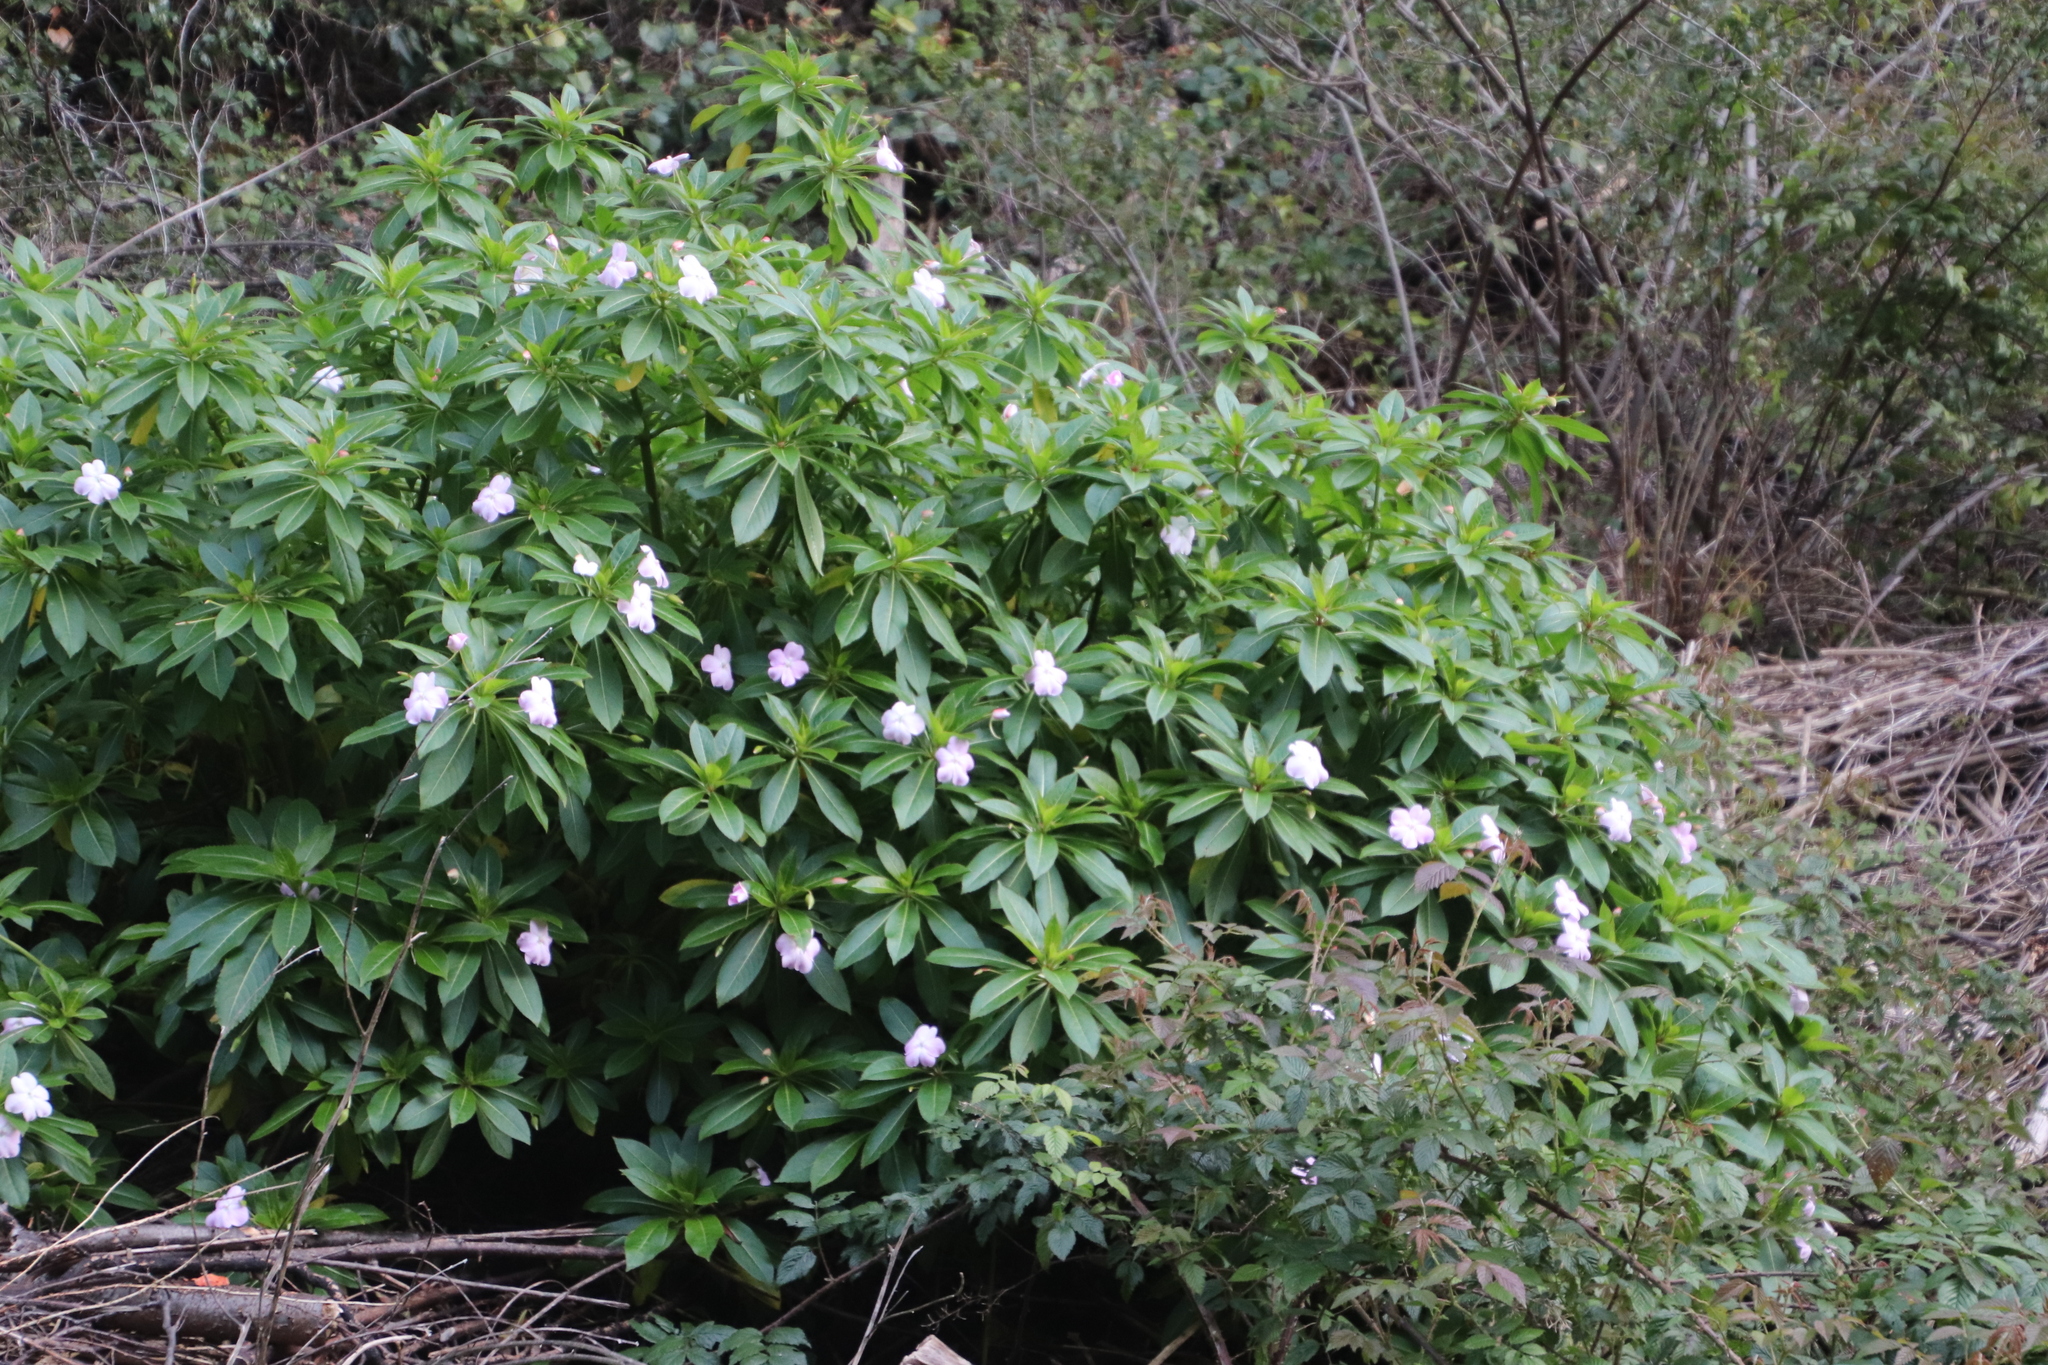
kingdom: Plantae
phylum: Tracheophyta
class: Magnoliopsida
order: Ericales
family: Balsaminaceae
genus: Impatiens
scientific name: Impatiens sodenii
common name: Oliver's touch-me-not
